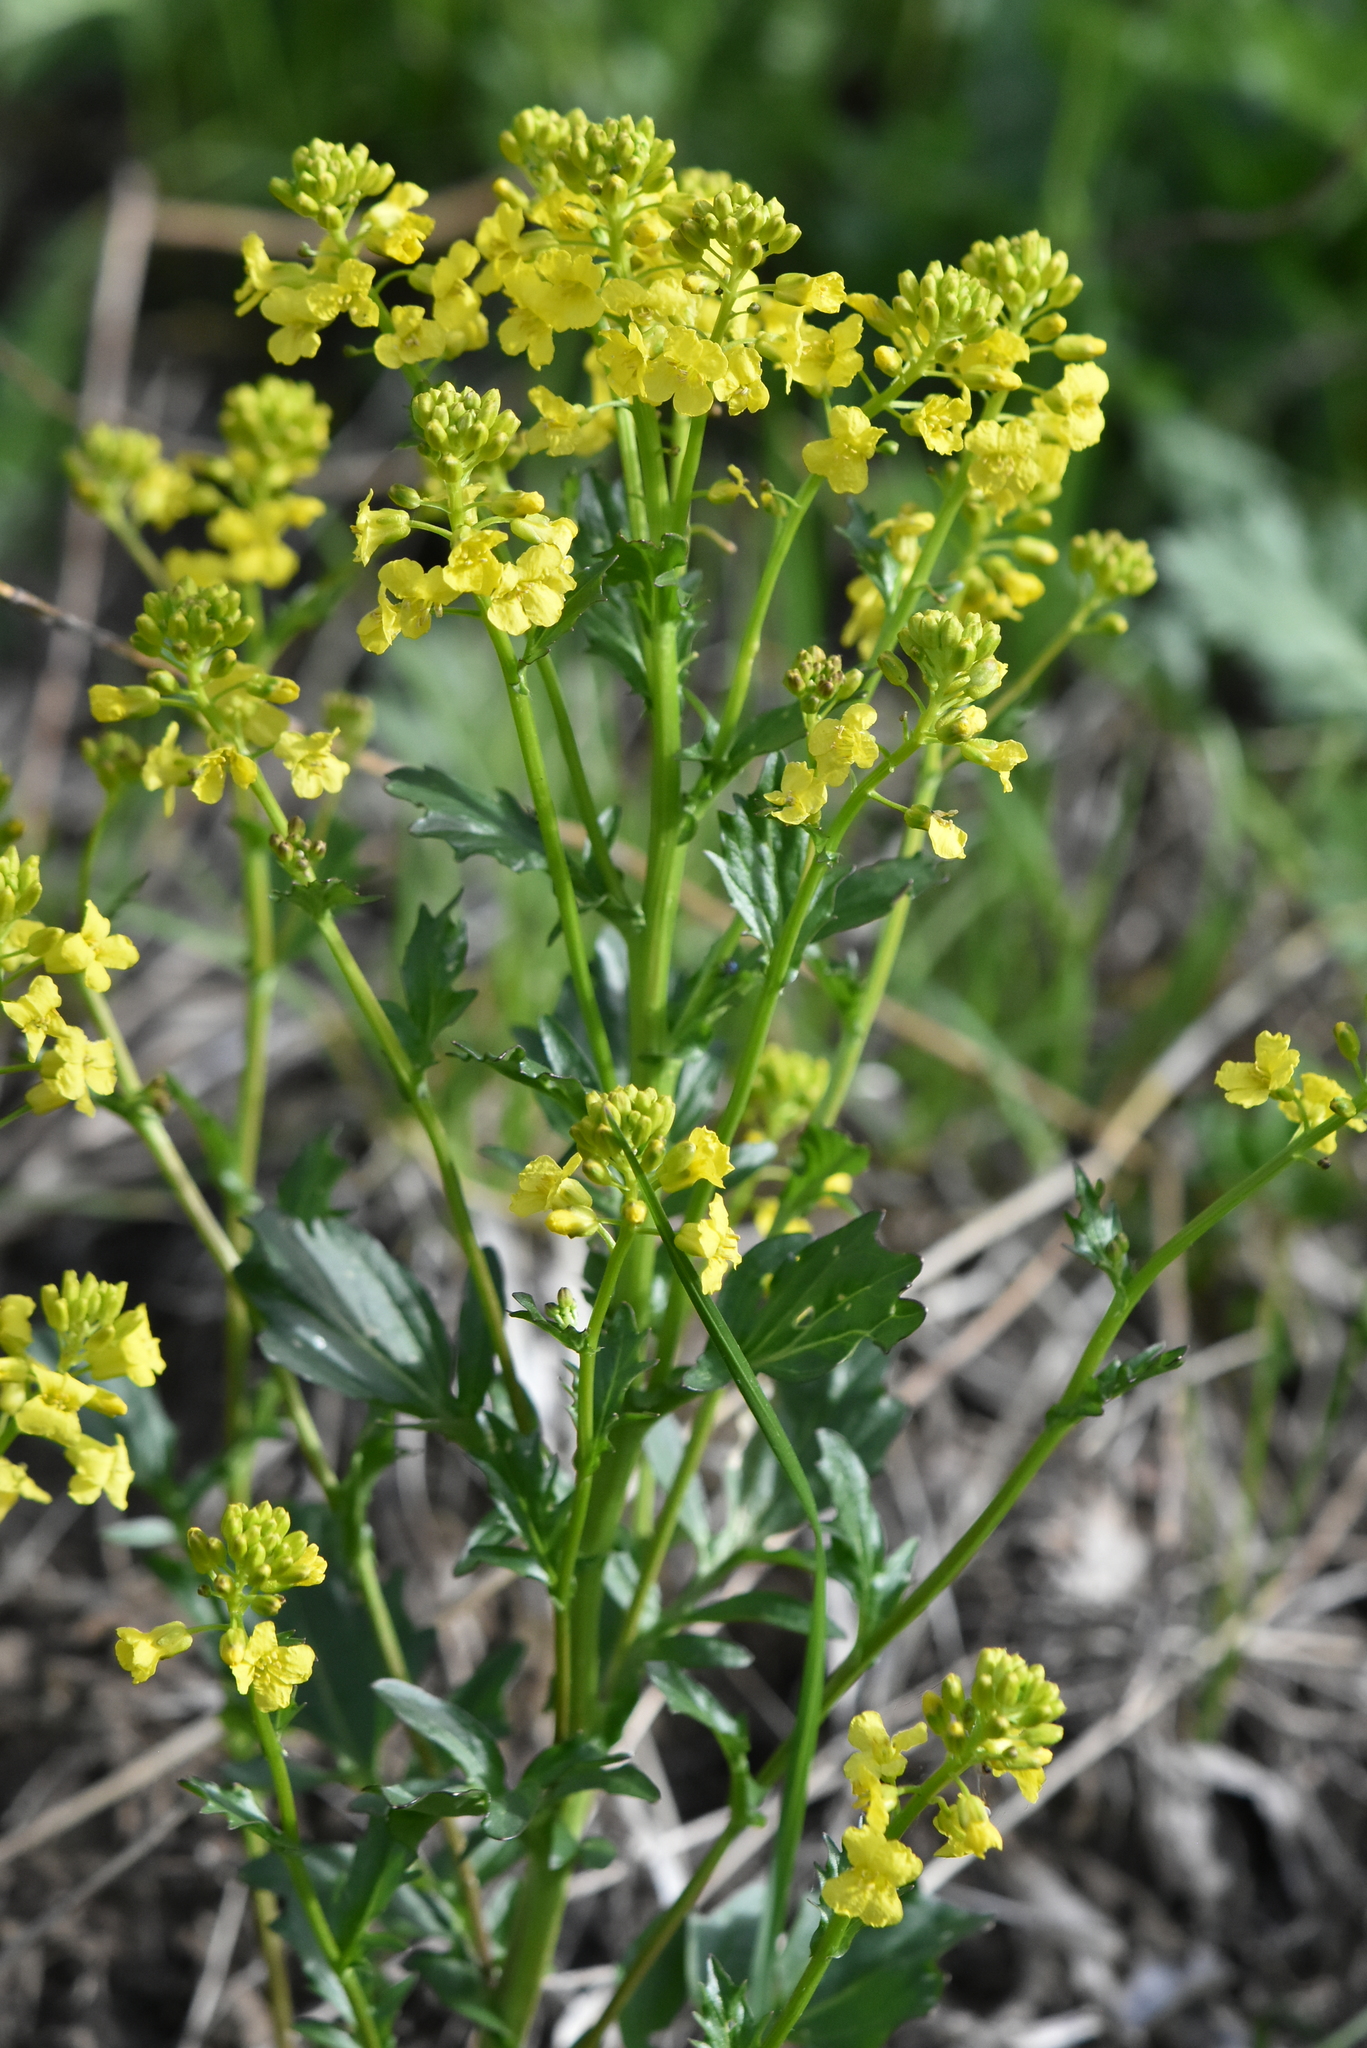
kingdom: Plantae
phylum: Tracheophyta
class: Magnoliopsida
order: Brassicales
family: Brassicaceae
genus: Barbarea
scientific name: Barbarea vulgaris
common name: Cressy-greens
